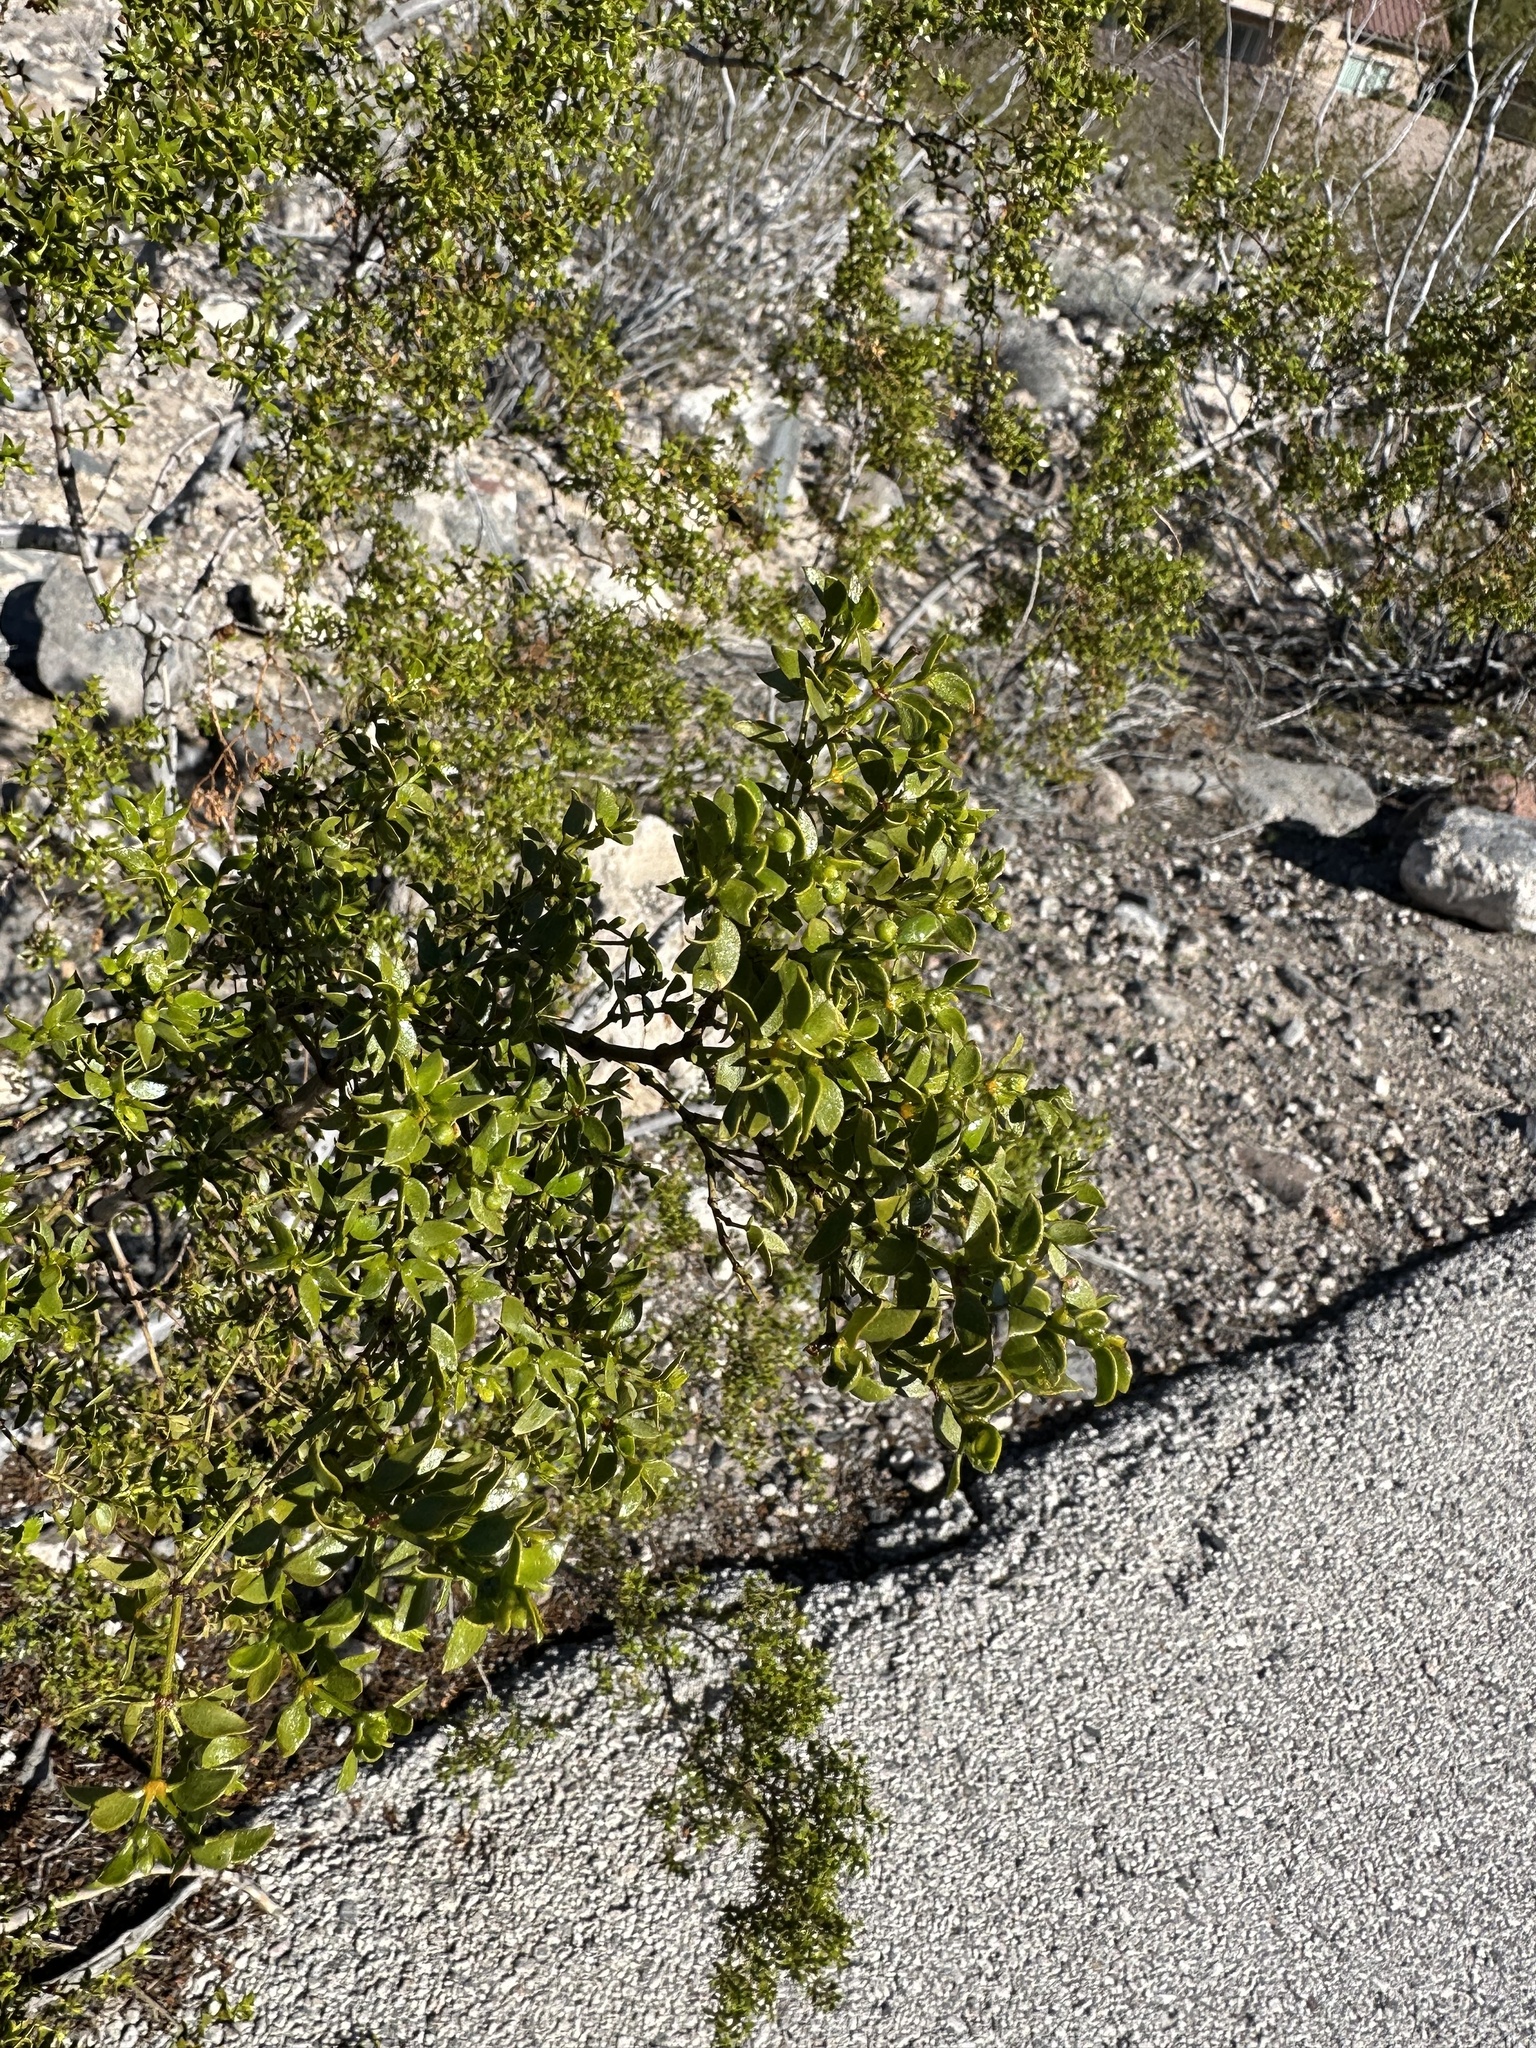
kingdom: Plantae
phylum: Tracheophyta
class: Magnoliopsida
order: Zygophyllales
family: Zygophyllaceae
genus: Larrea
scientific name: Larrea tridentata
